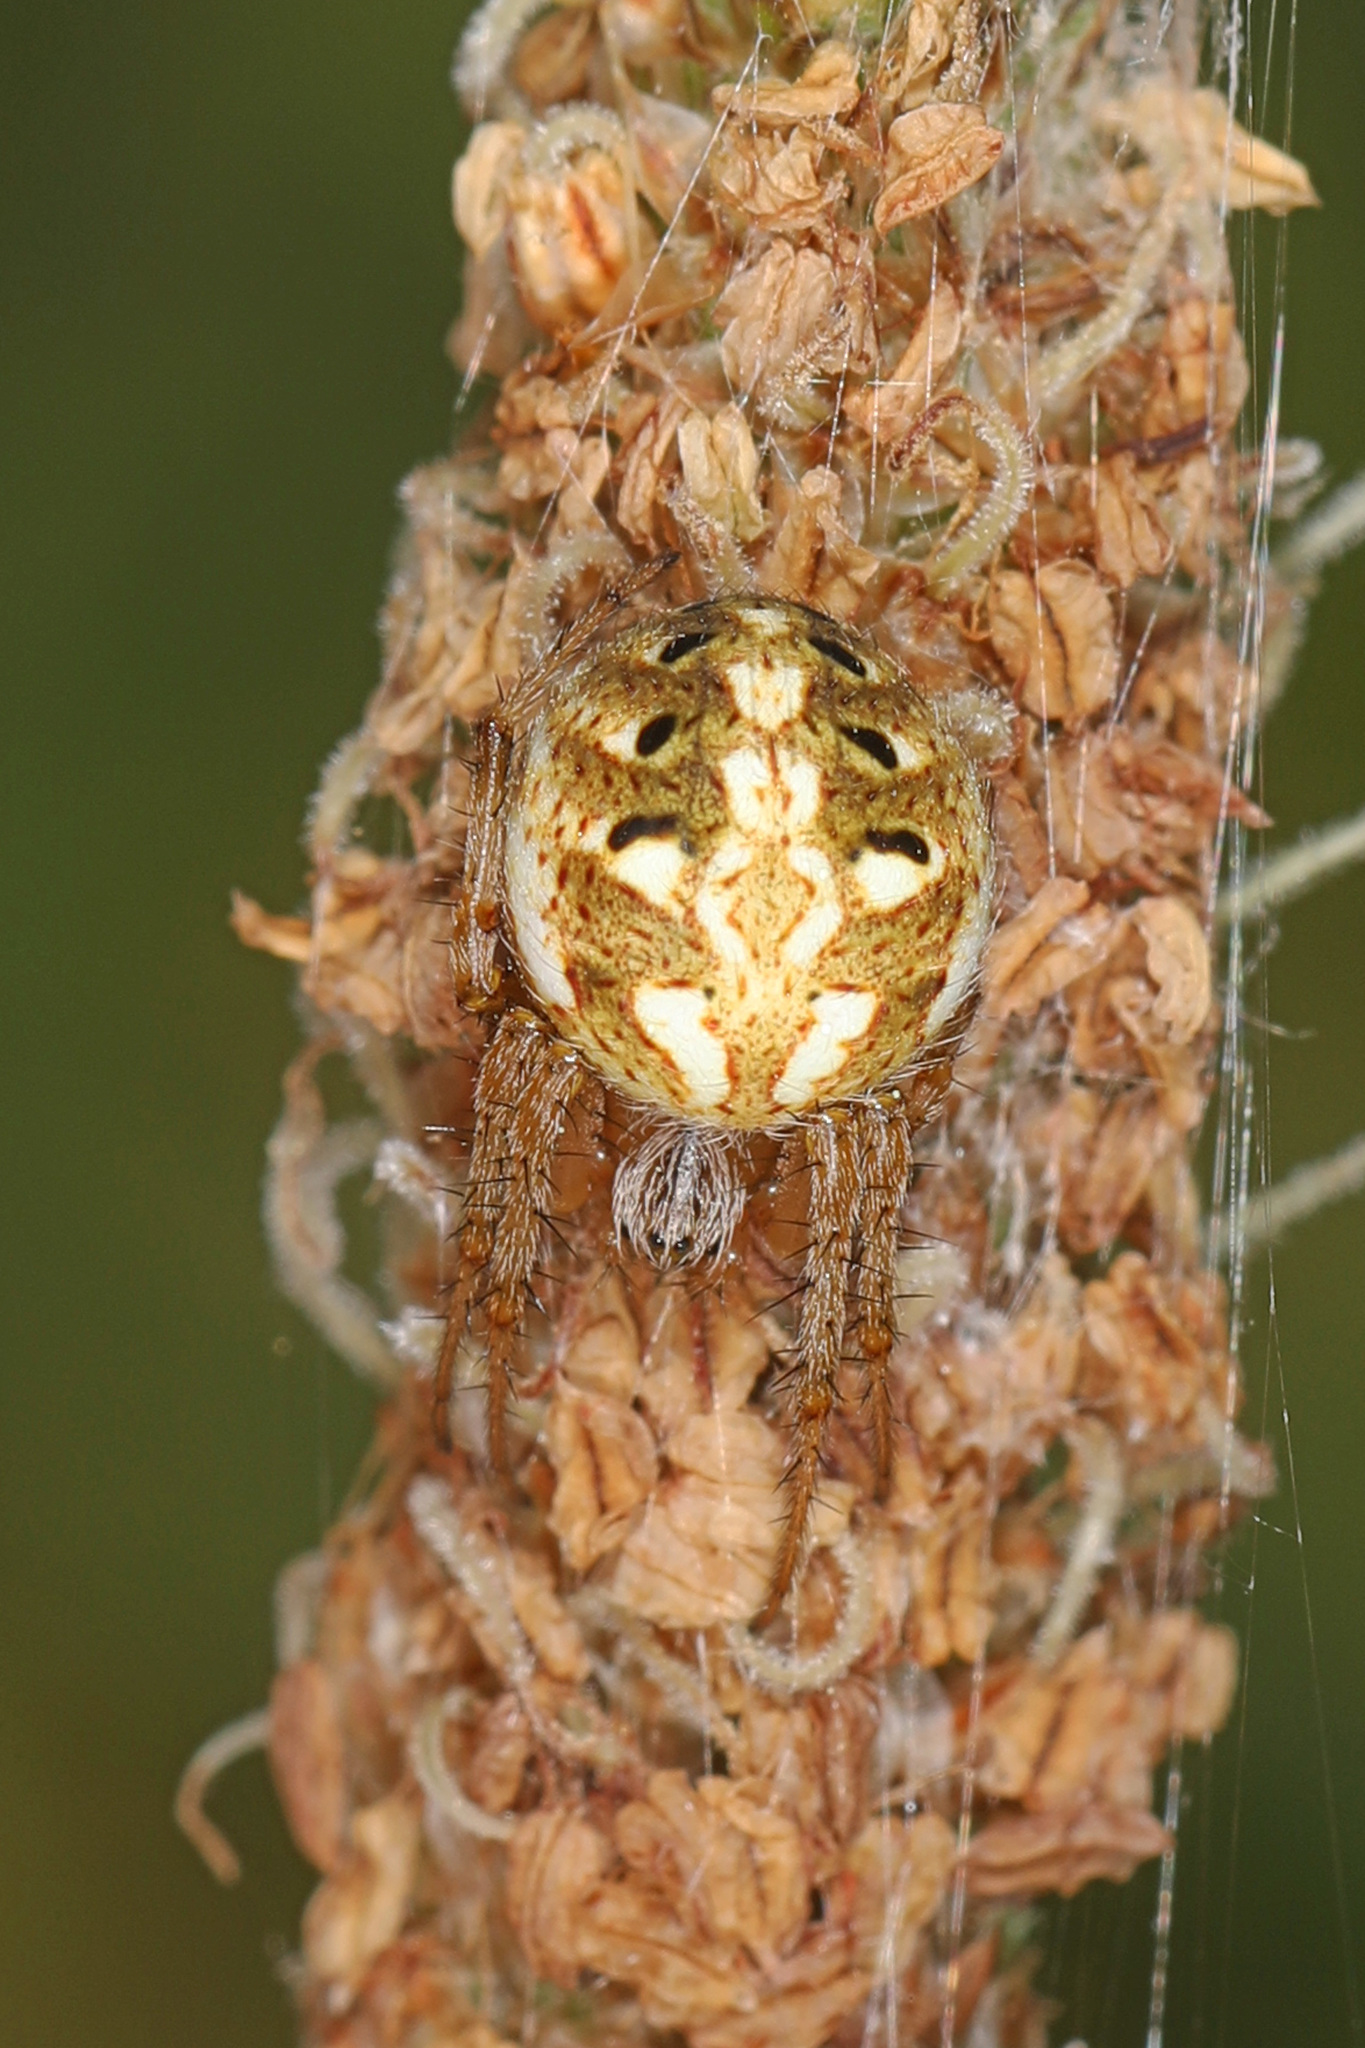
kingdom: Animalia
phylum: Arthropoda
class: Arachnida
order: Araneae
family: Araneidae
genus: Neoscona
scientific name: Neoscona arabesca
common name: Orb weavers
